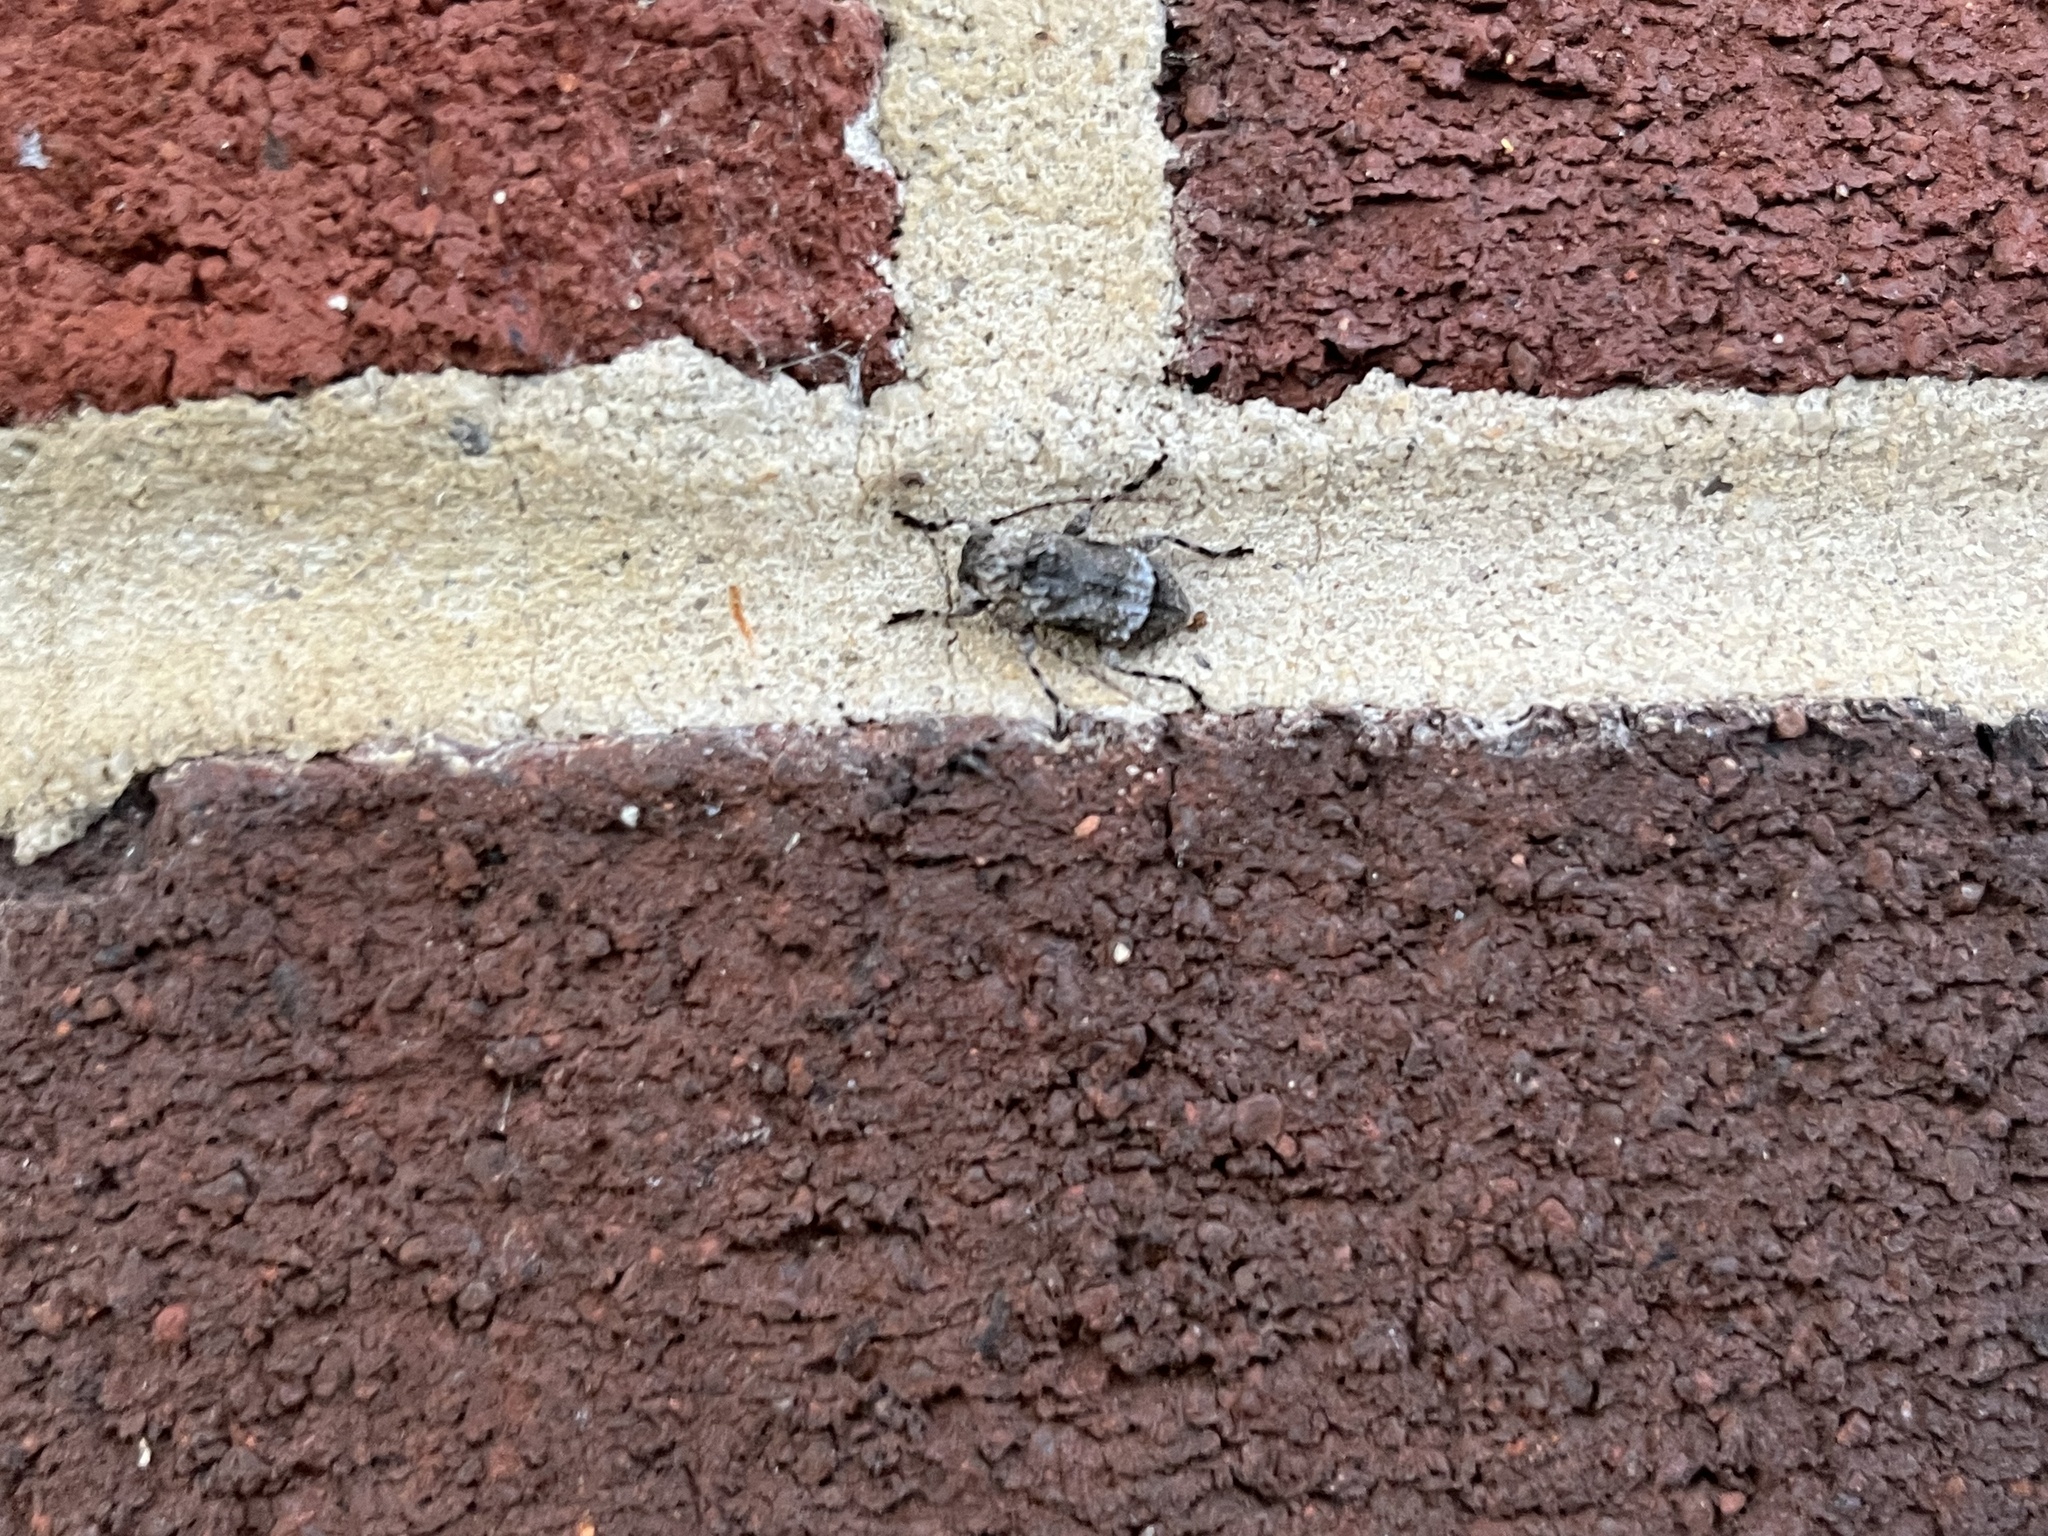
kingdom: Animalia
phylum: Arthropoda
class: Insecta
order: Coleoptera
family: Cerambycidae
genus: Leptostylus
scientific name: Leptostylus transversus
